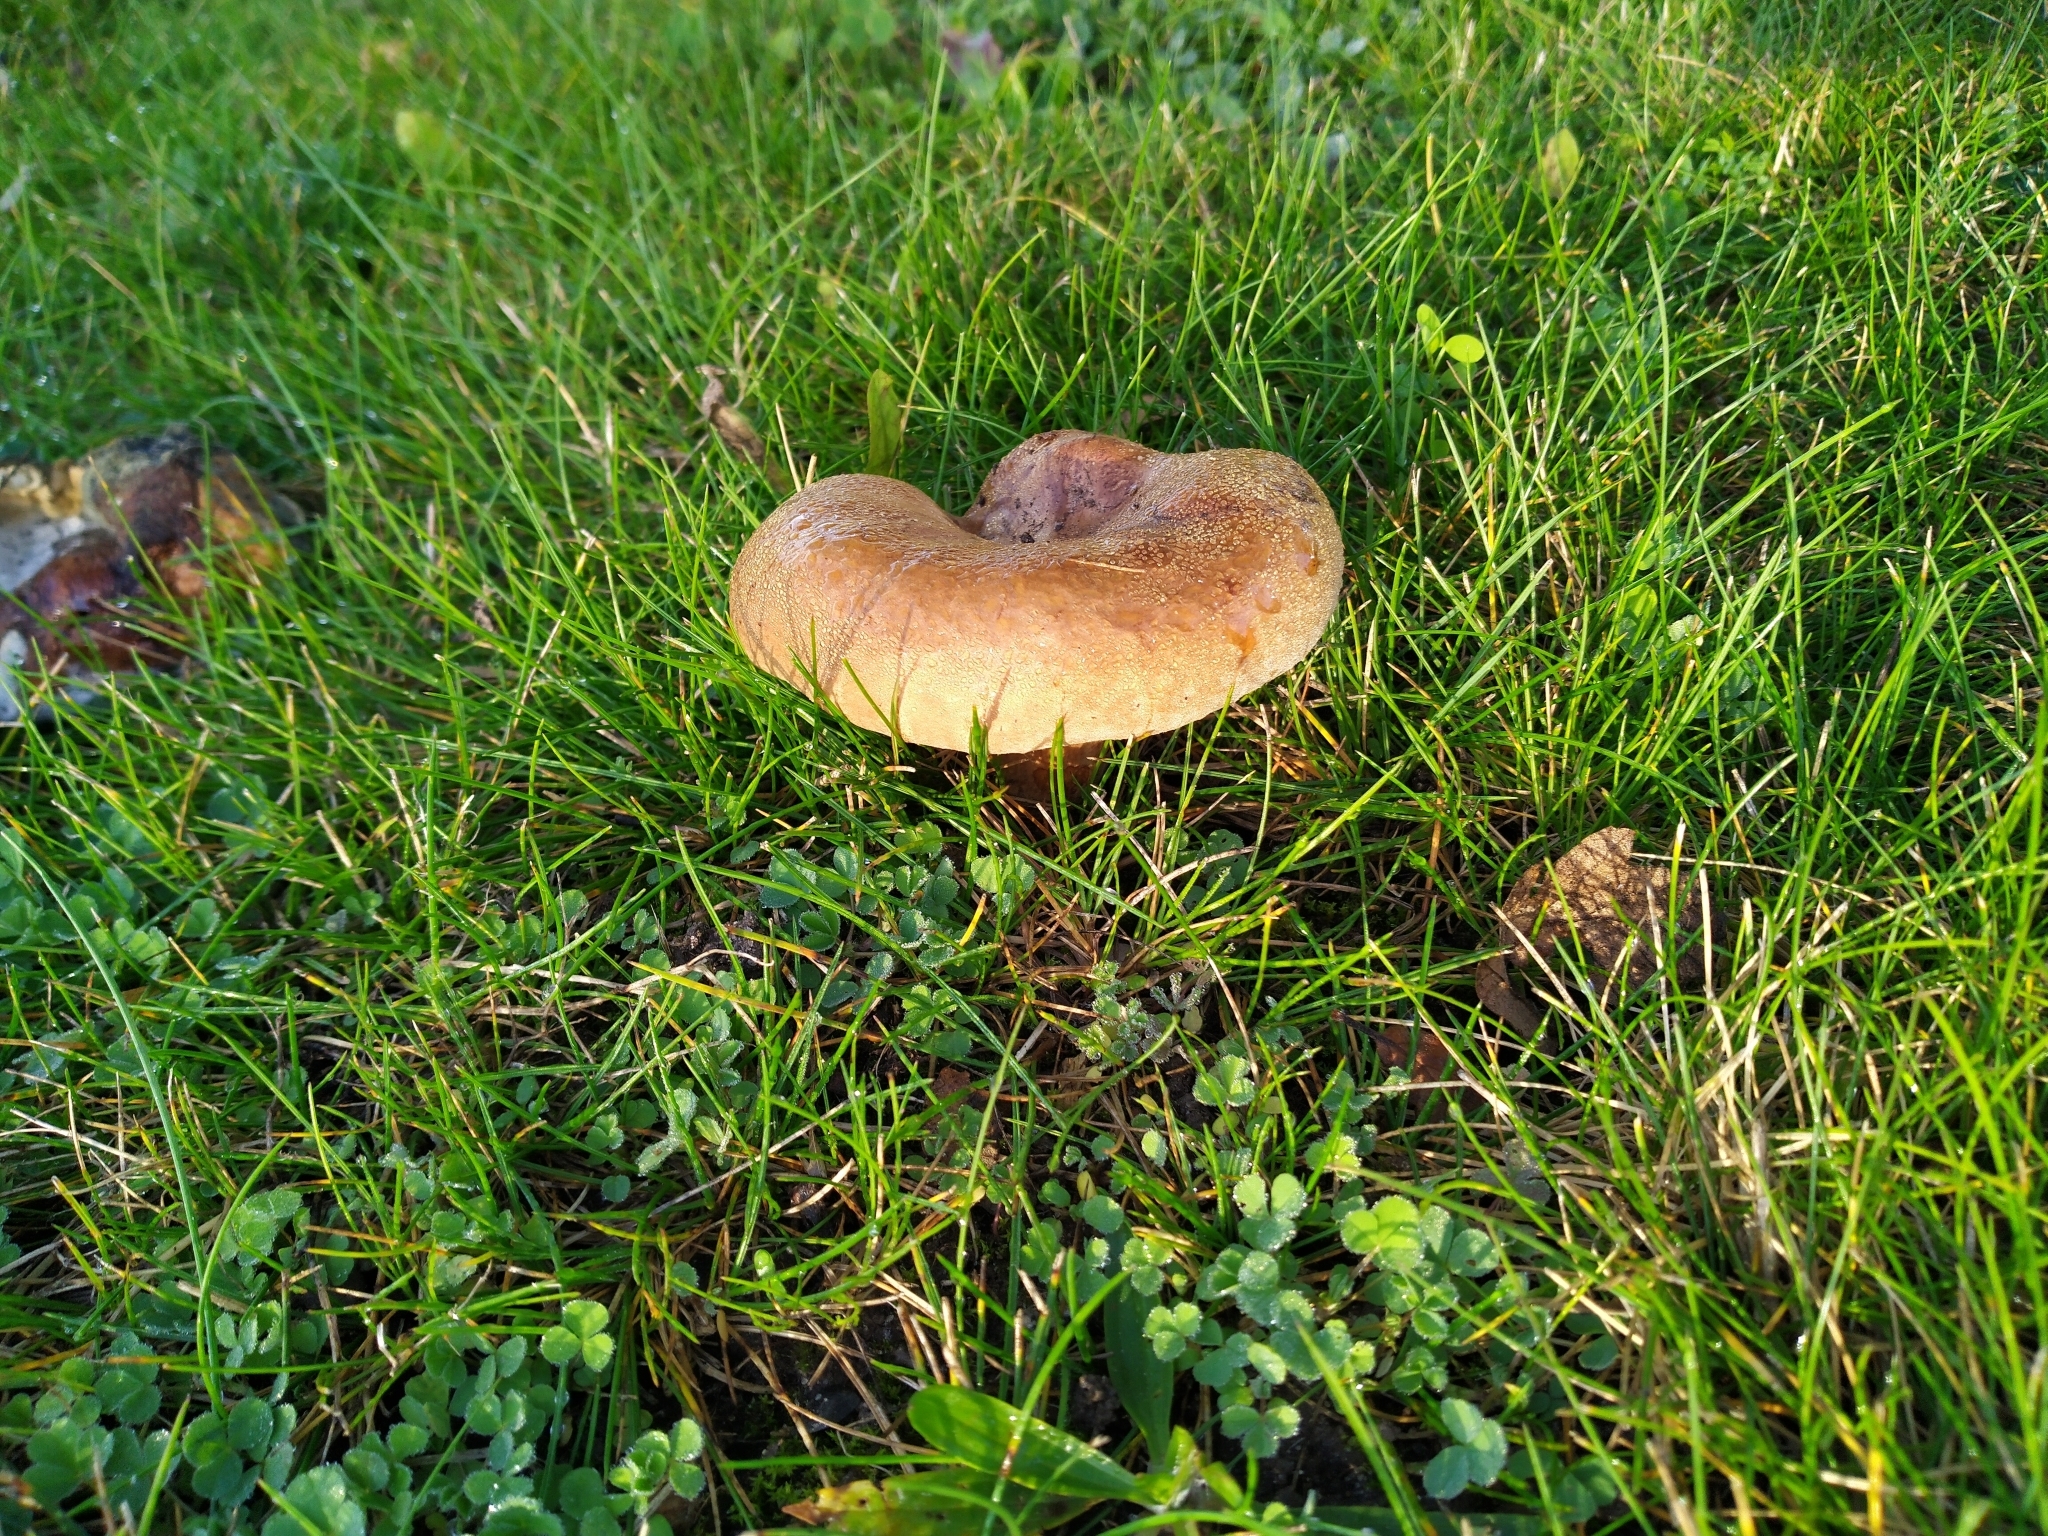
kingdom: Fungi
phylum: Basidiomycota
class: Agaricomycetes
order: Boletales
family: Paxillaceae
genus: Paxillus
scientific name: Paxillus cuprinus
